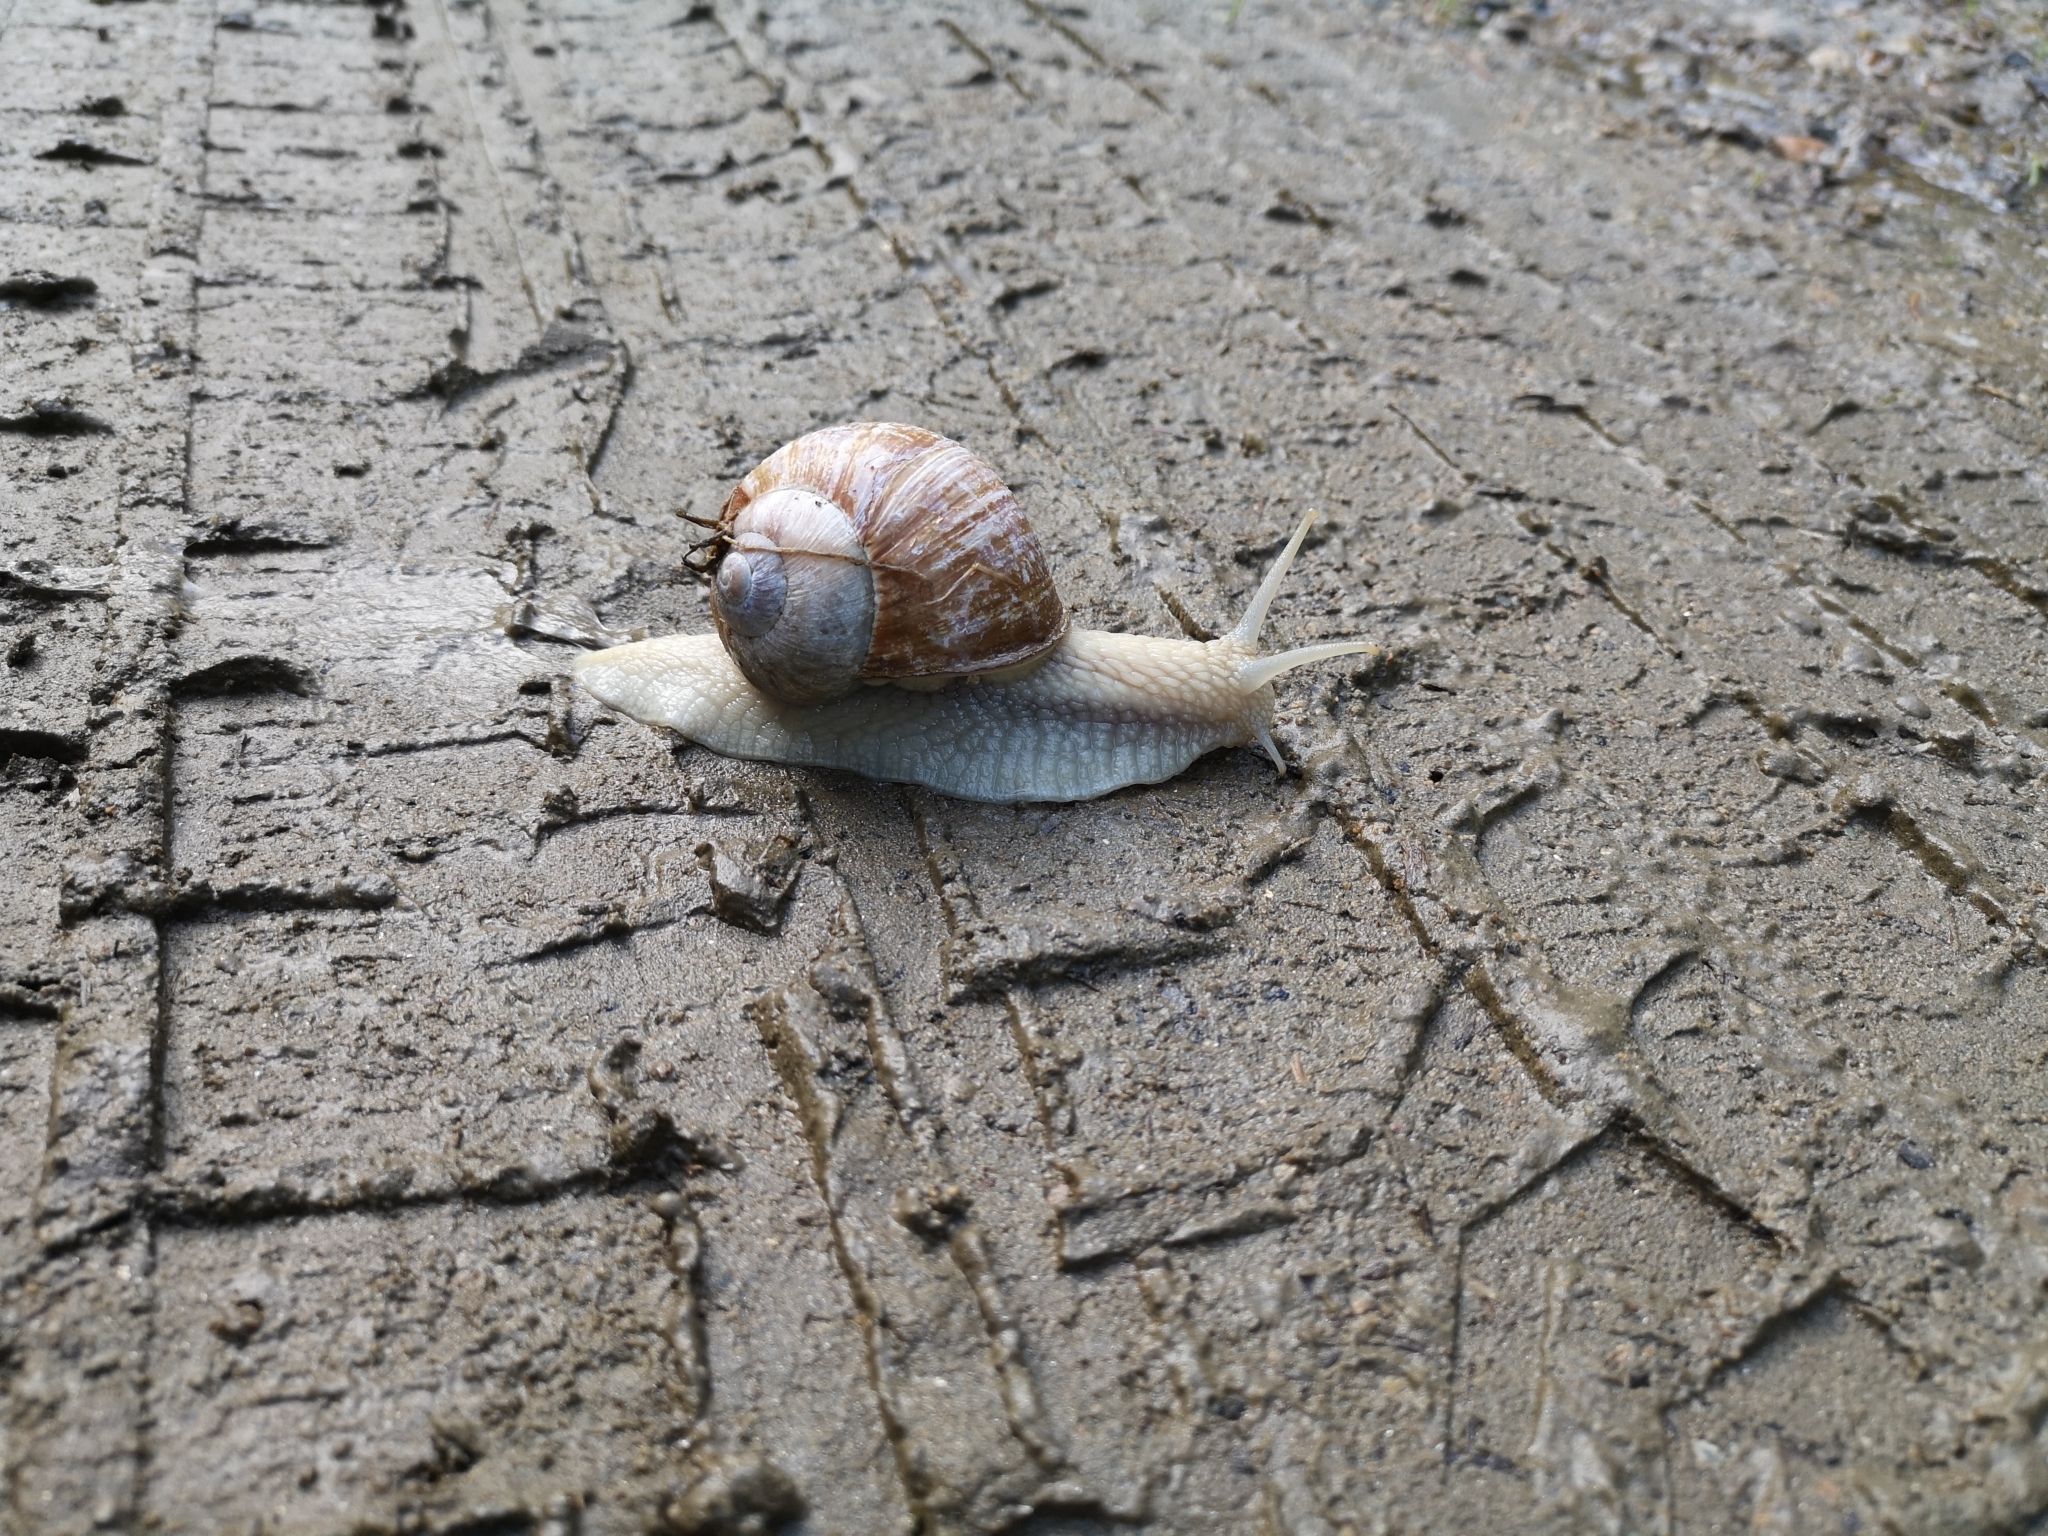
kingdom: Animalia
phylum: Mollusca
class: Gastropoda
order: Stylommatophora
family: Helicidae
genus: Helix
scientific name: Helix pomatia
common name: Roman snail
